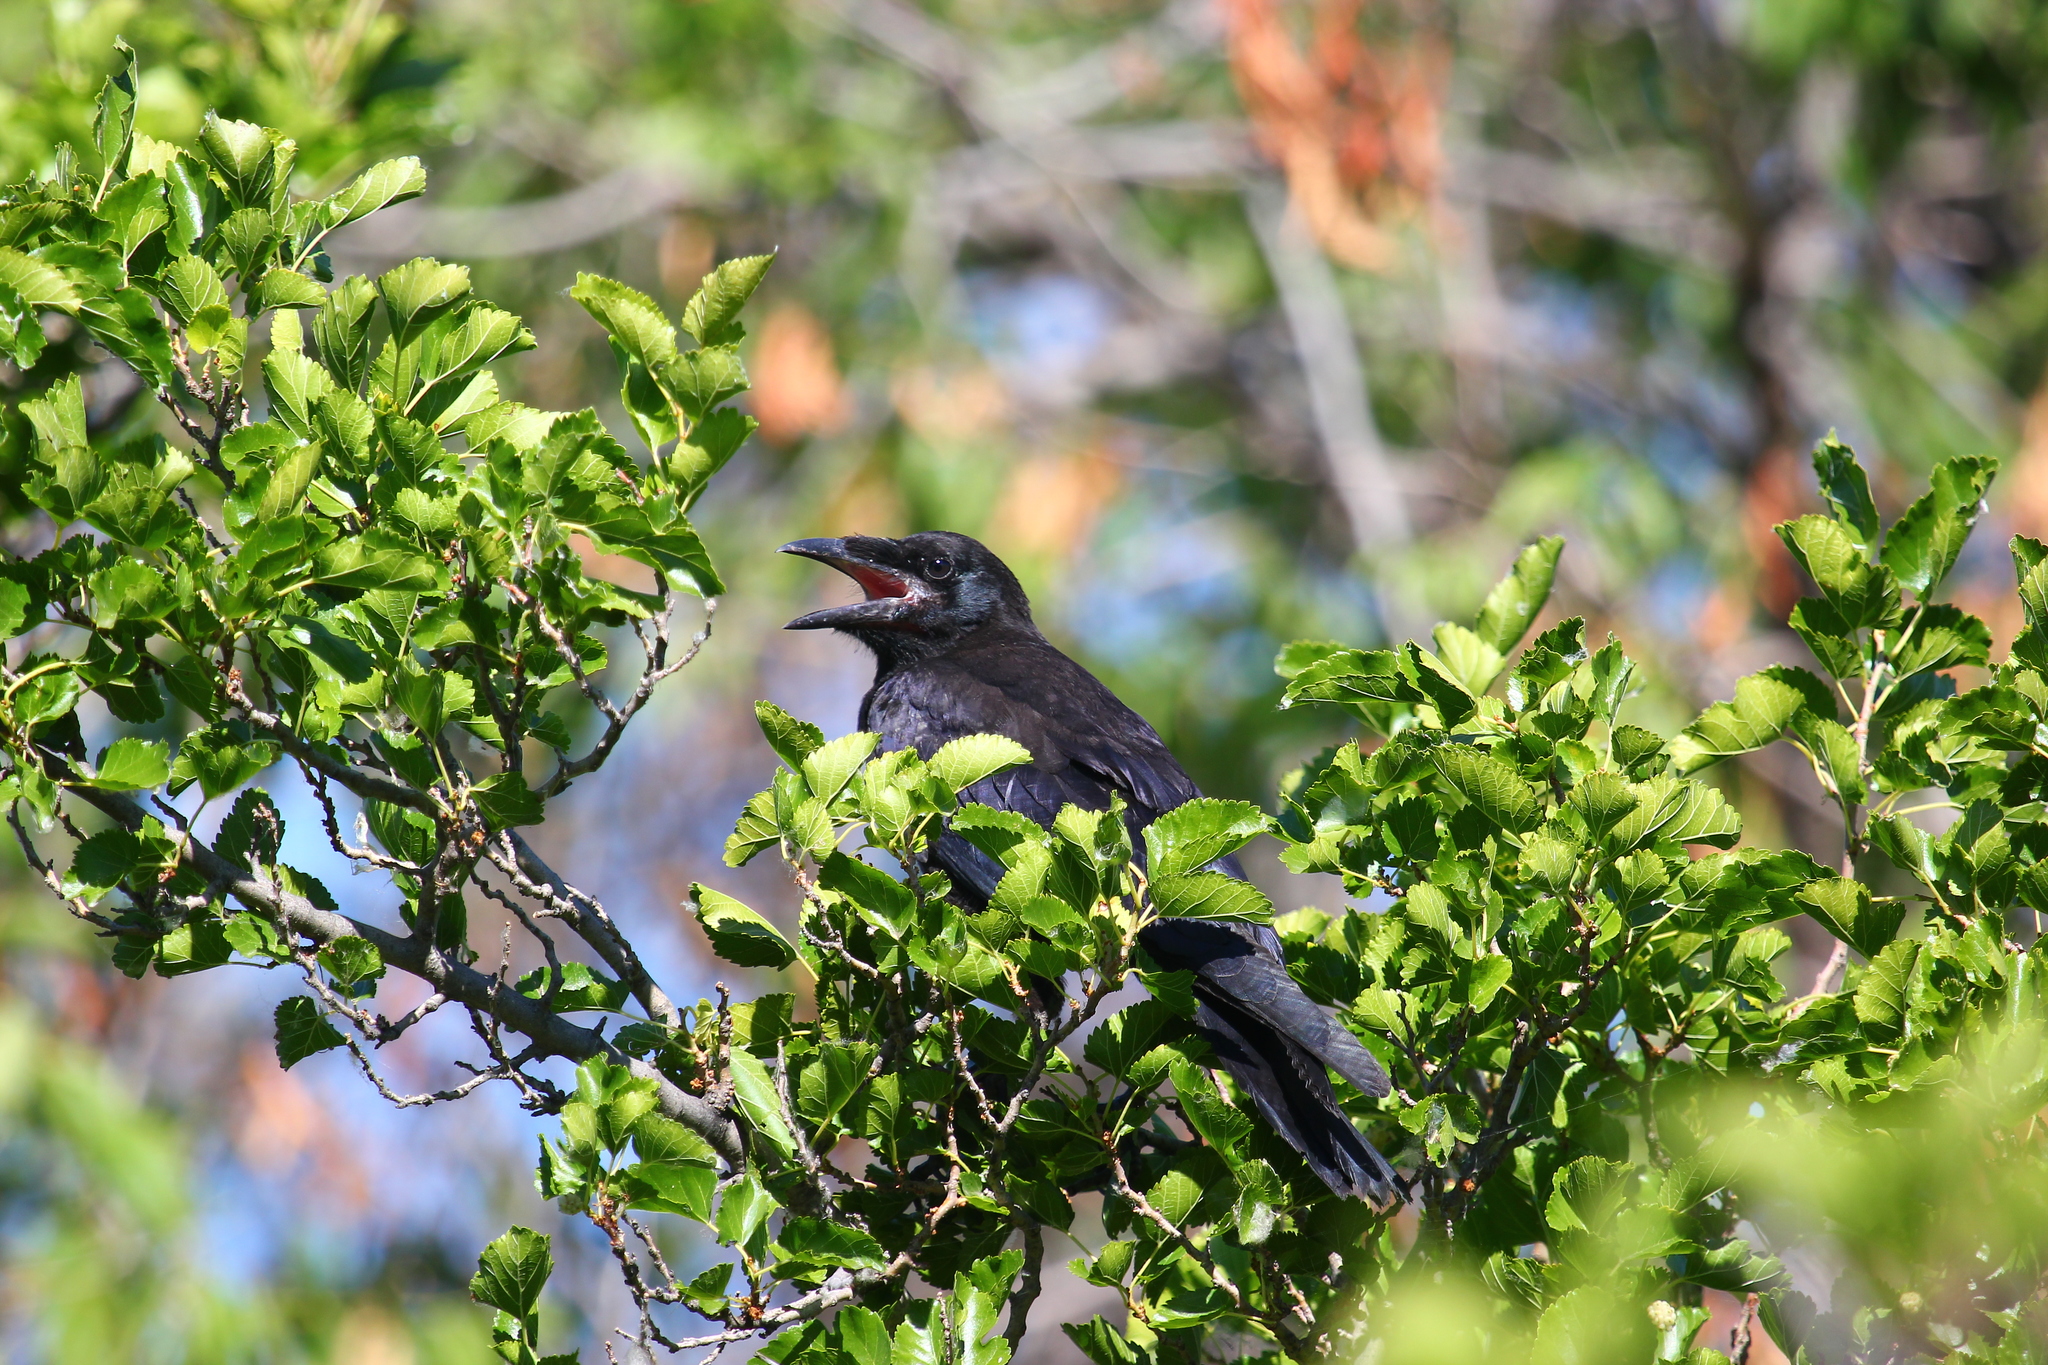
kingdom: Animalia
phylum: Chordata
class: Aves
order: Passeriformes
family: Corvidae
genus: Corvus
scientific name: Corvus frugilegus
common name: Rook
